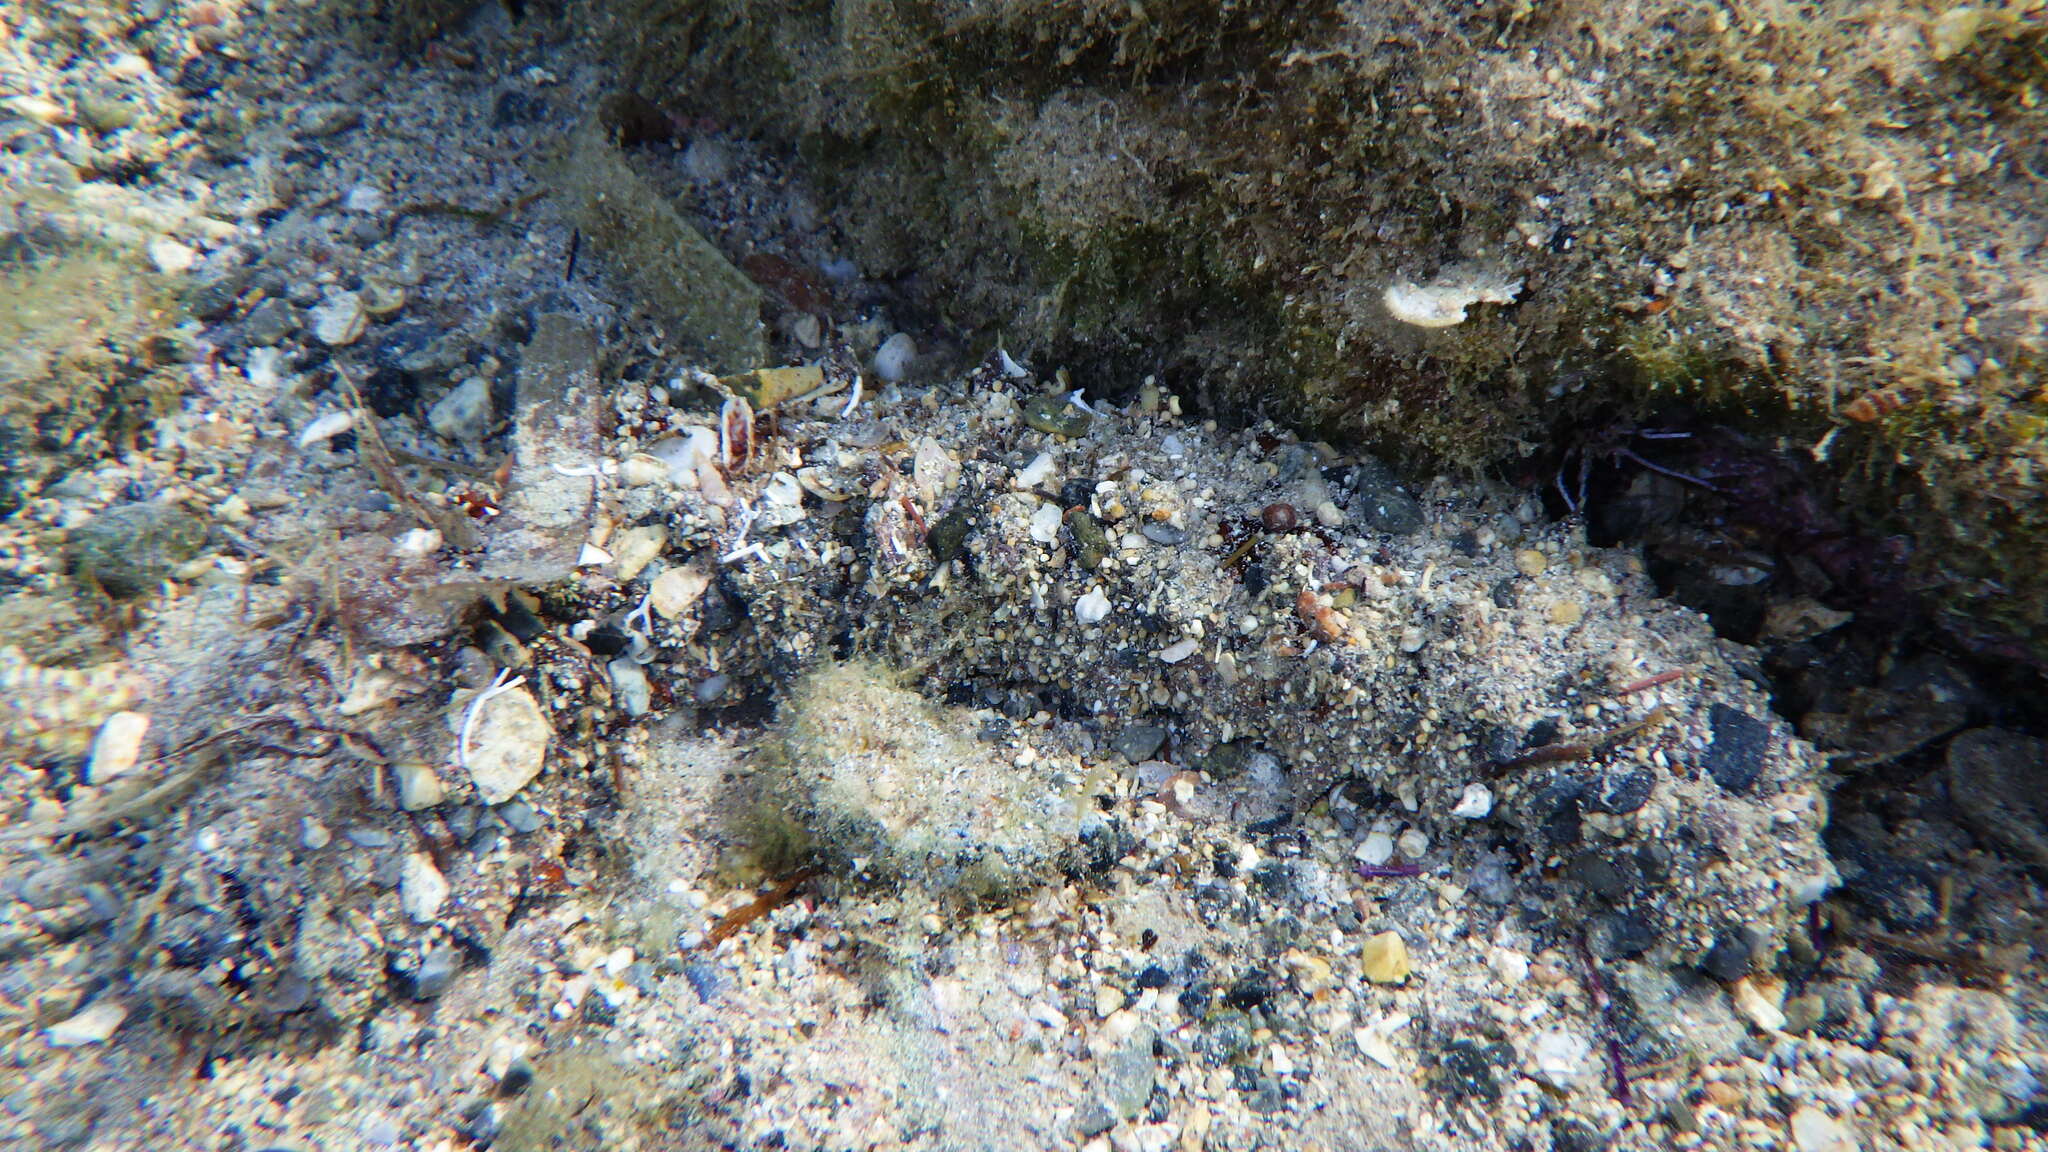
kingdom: Animalia
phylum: Echinodermata
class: Holothuroidea
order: Holothuriida
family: Holothuriidae
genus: Holothuria
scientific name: Holothuria
